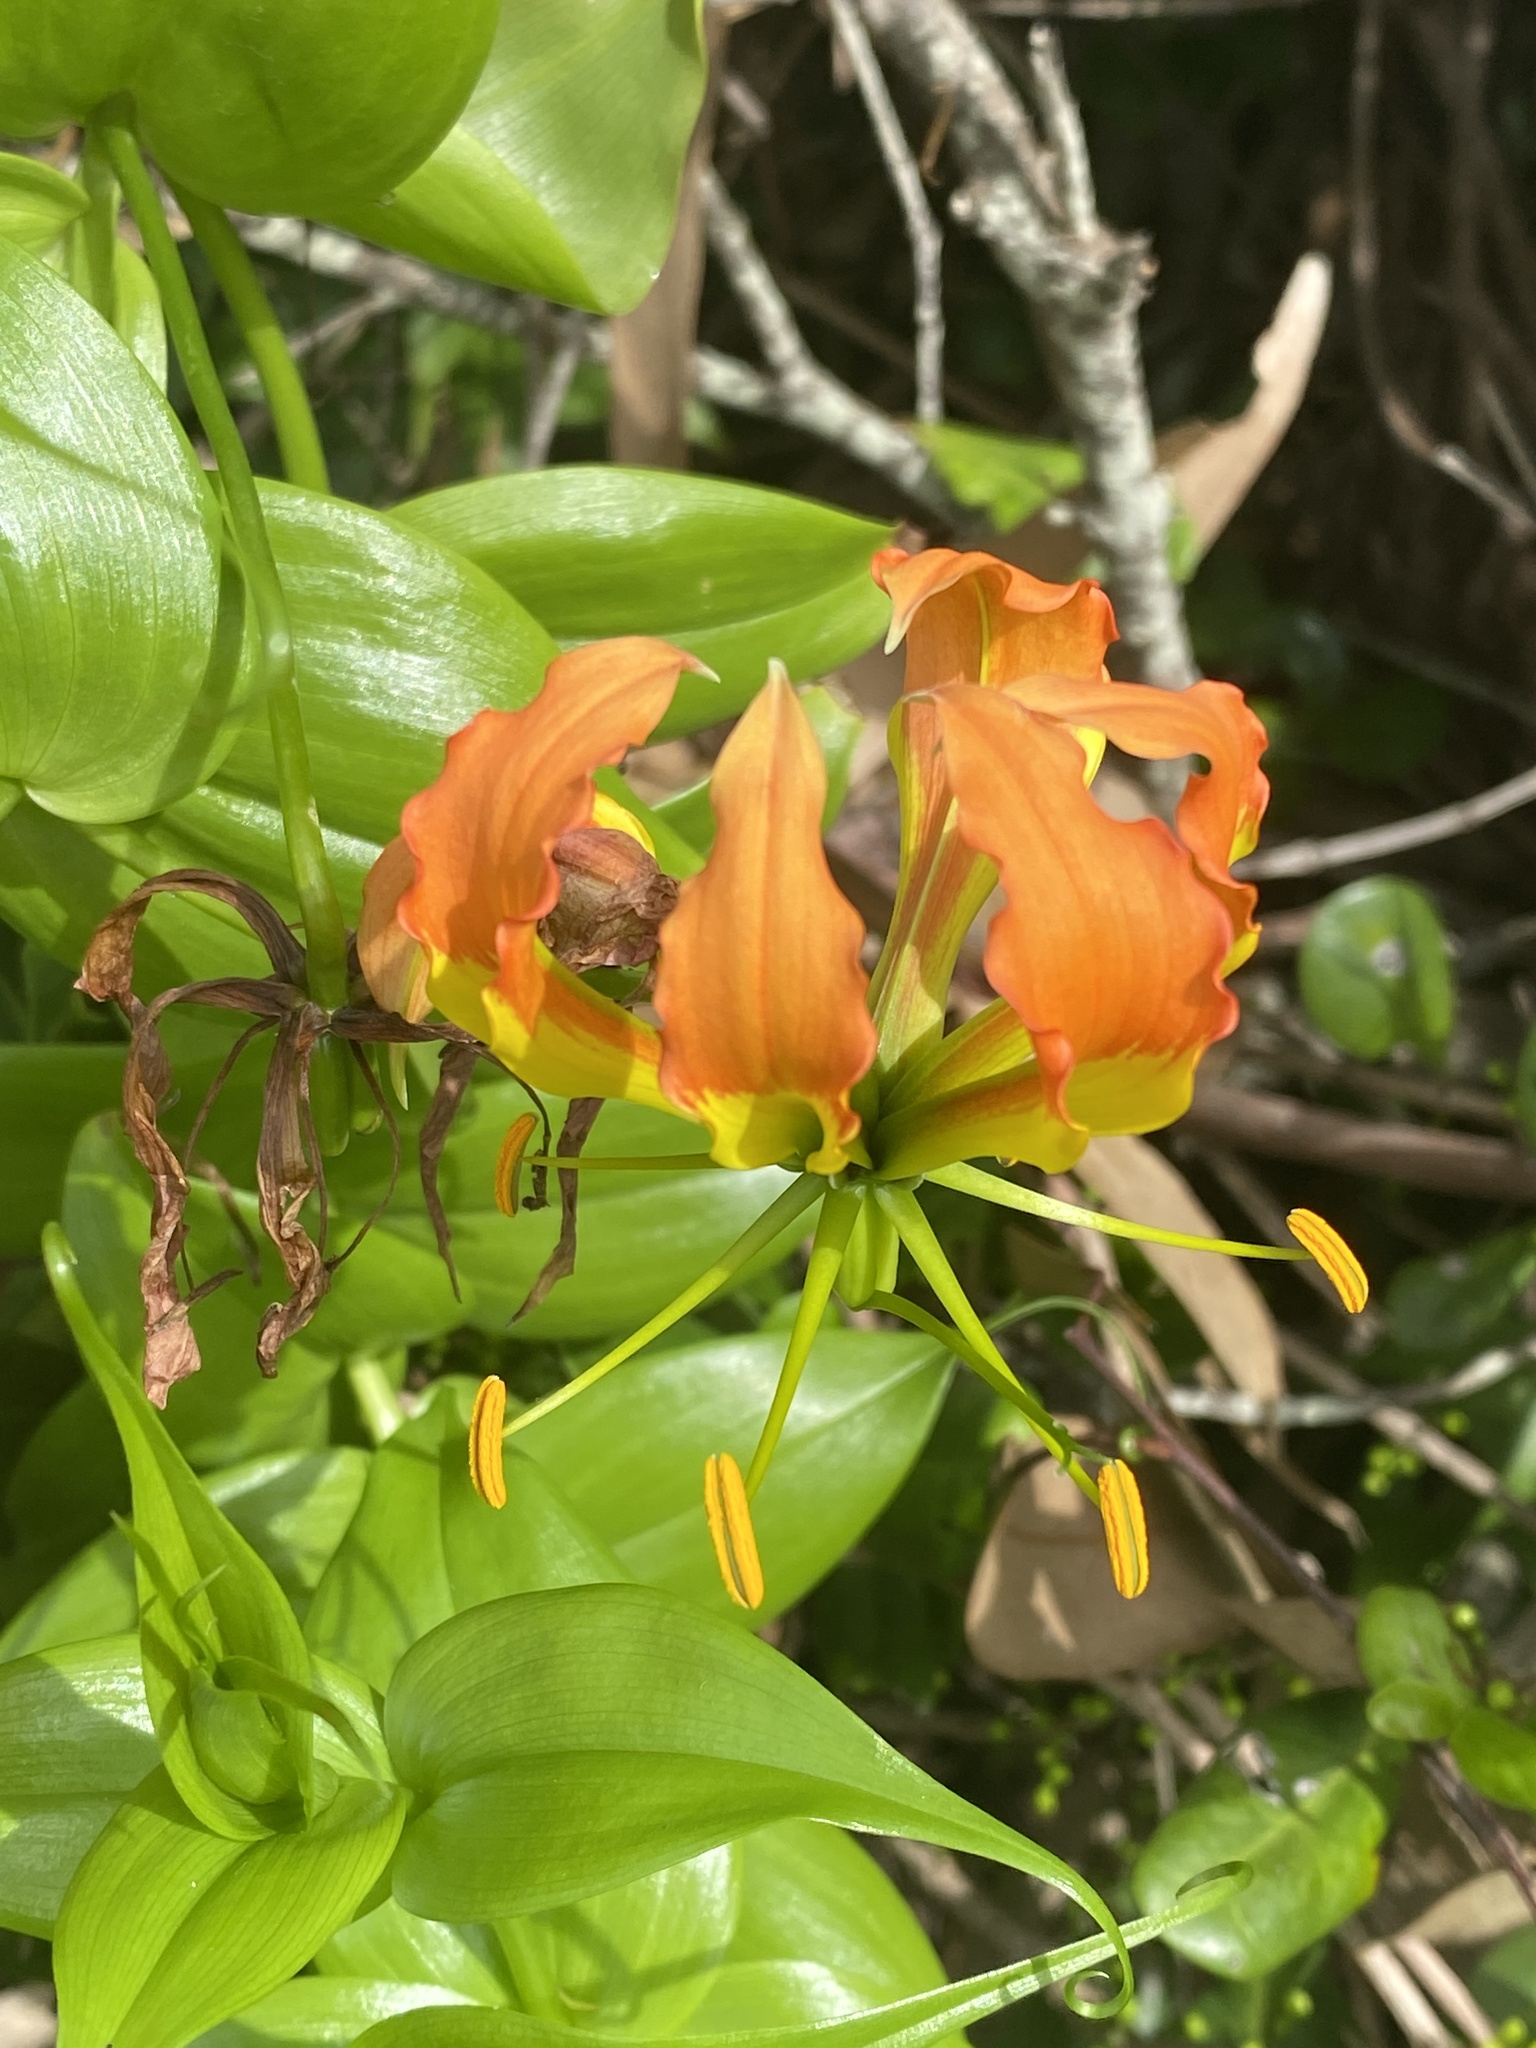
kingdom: Plantae
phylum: Tracheophyta
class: Liliopsida
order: Liliales
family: Colchicaceae
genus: Gloriosa
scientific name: Gloriosa superba
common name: Flame lily
